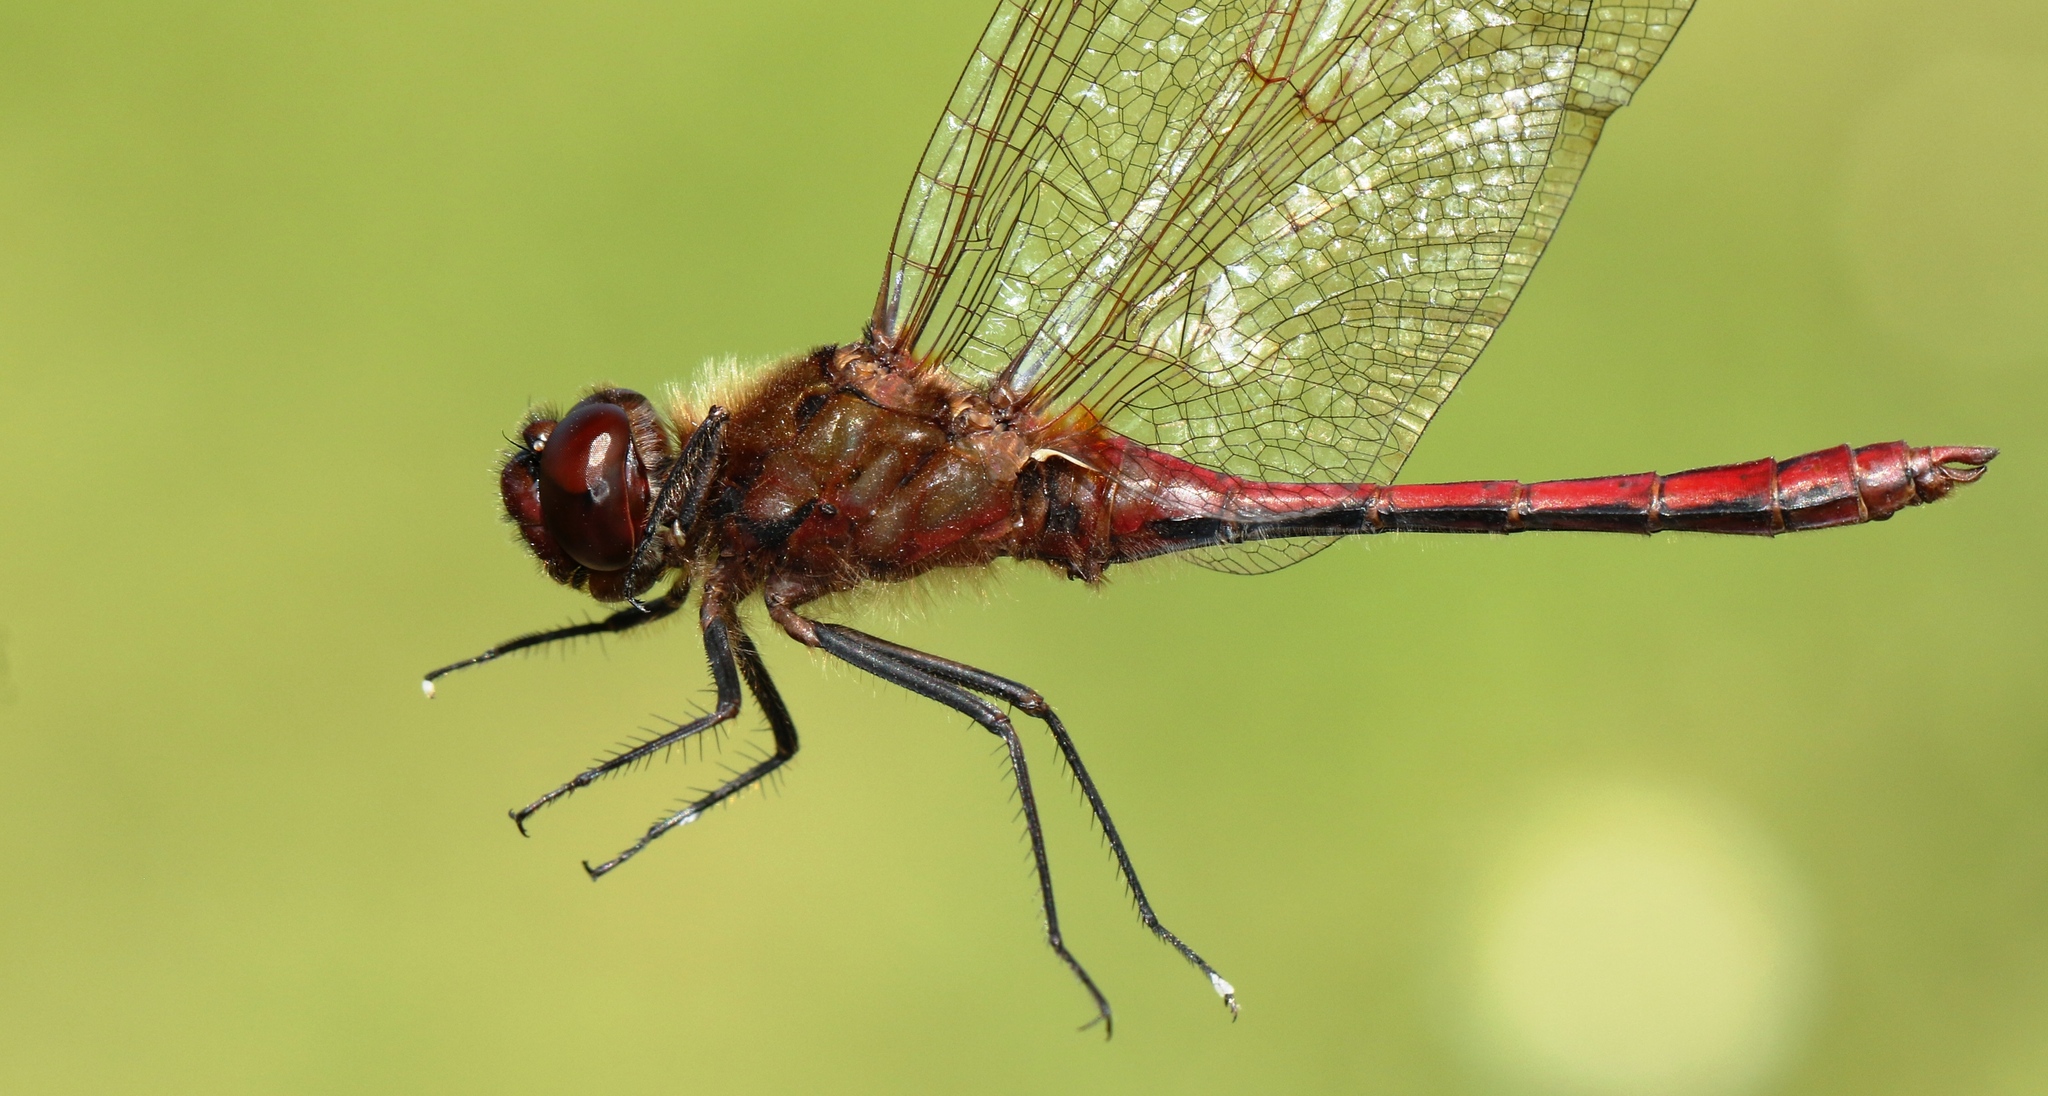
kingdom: Animalia
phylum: Arthropoda
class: Insecta
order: Odonata
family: Libellulidae
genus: Sympetrum
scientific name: Sympetrum costiferum
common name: Saffron-winged meadowhawk
